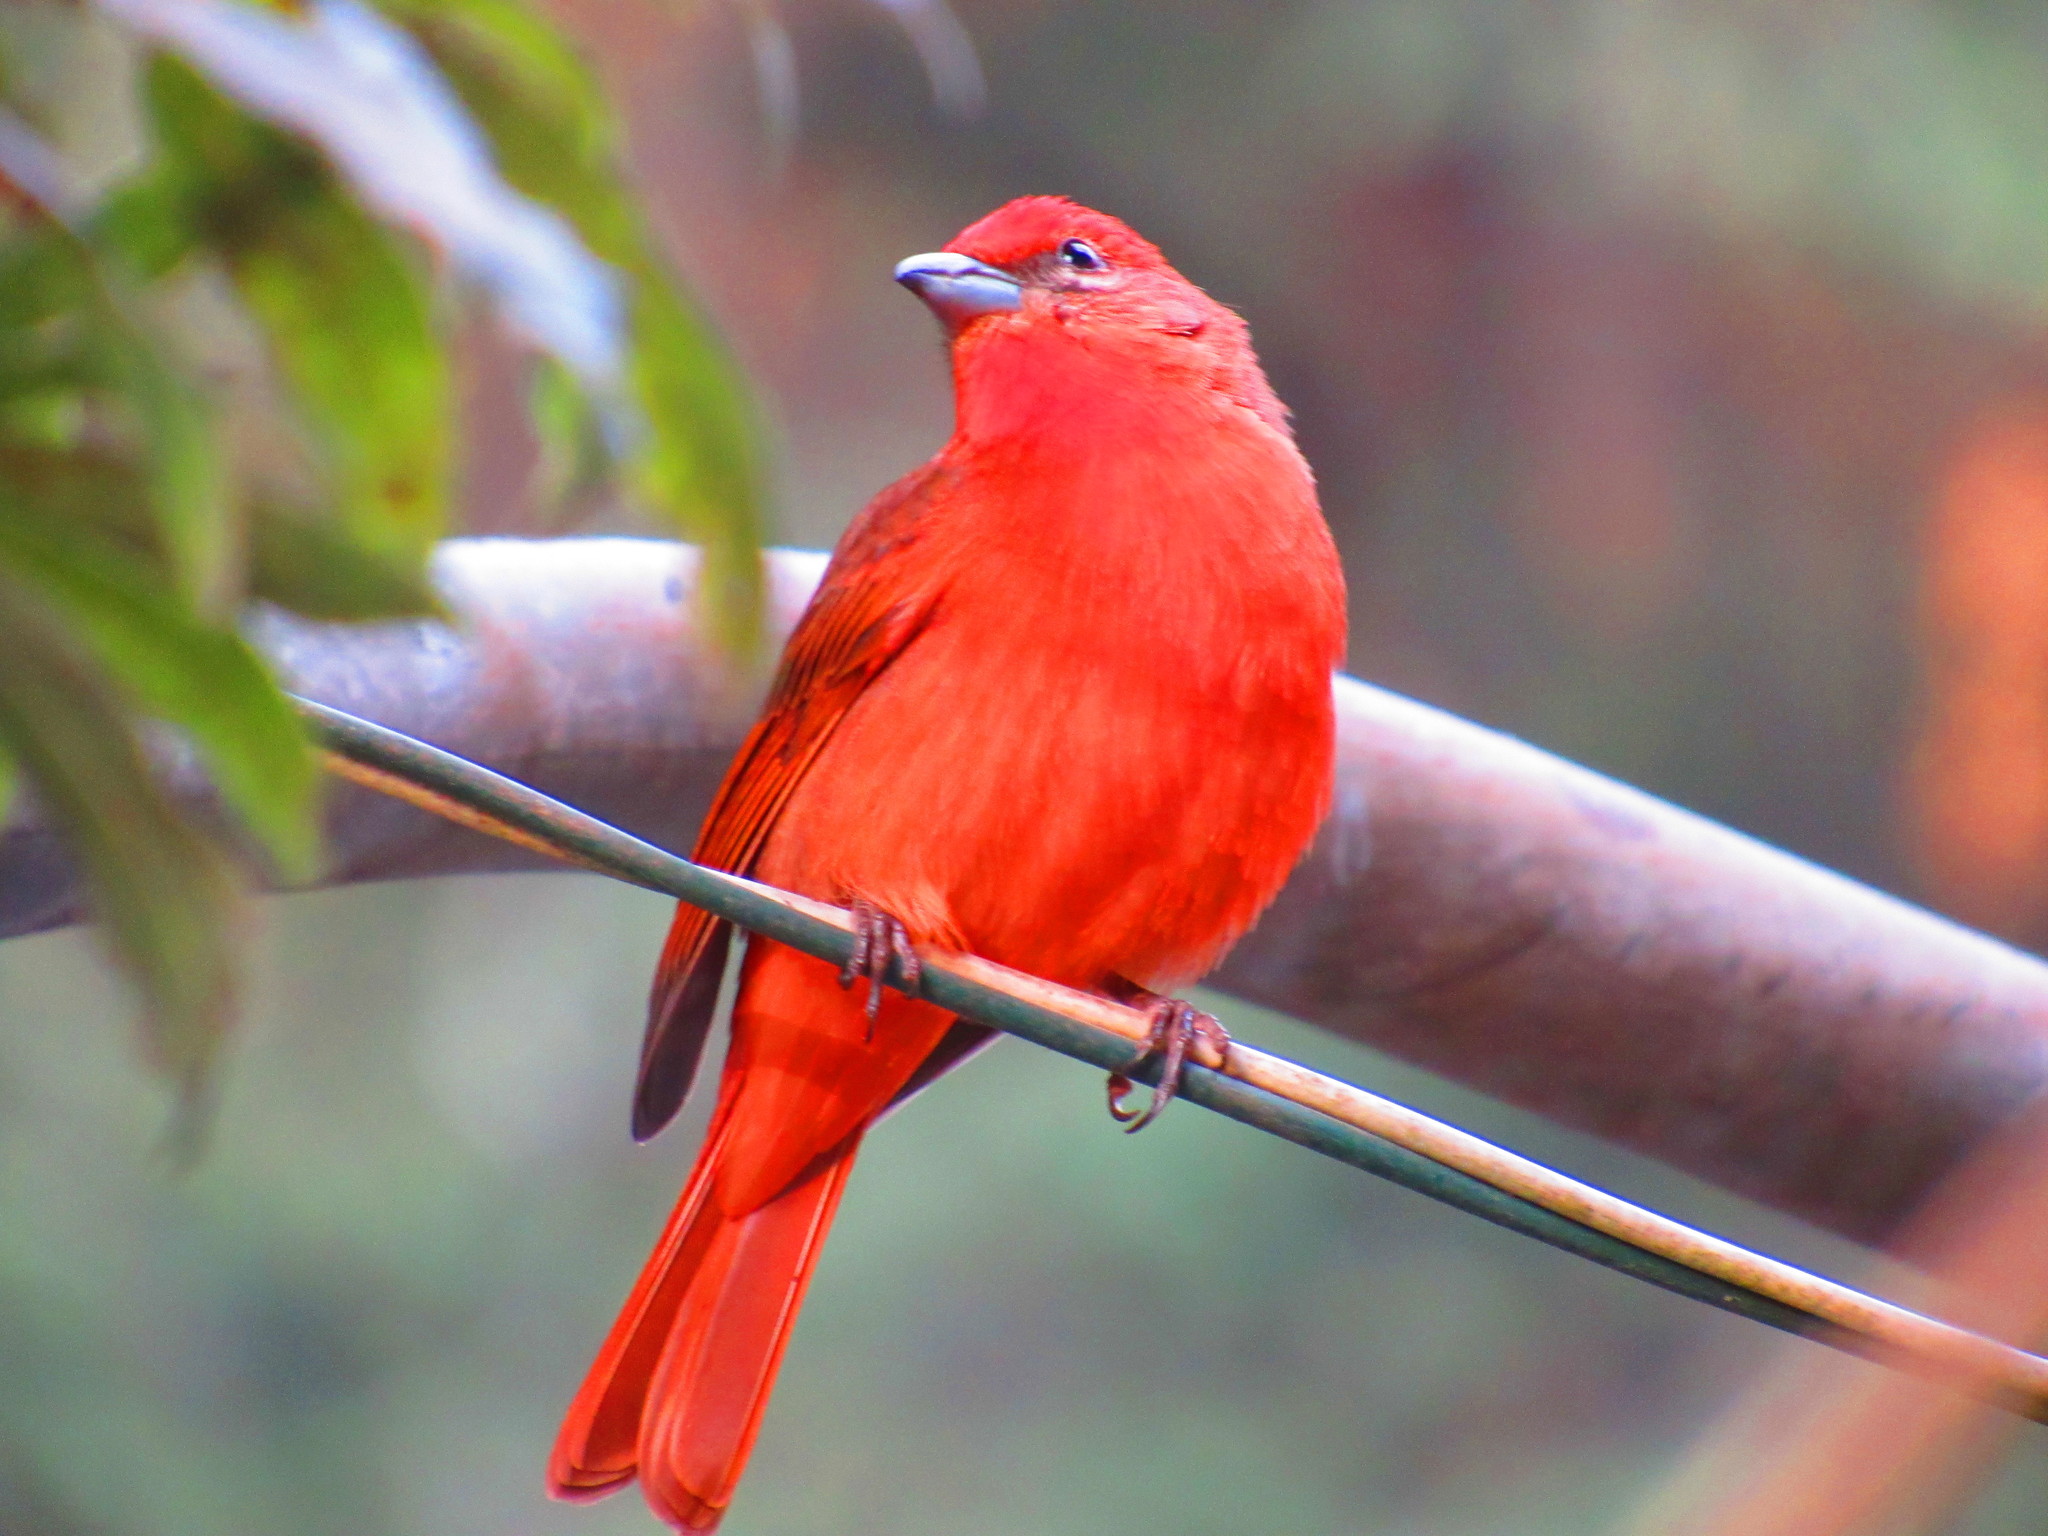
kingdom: Animalia
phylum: Chordata
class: Aves
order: Passeriformes
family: Cardinalidae
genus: Piranga
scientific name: Piranga flava
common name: Red tanager
